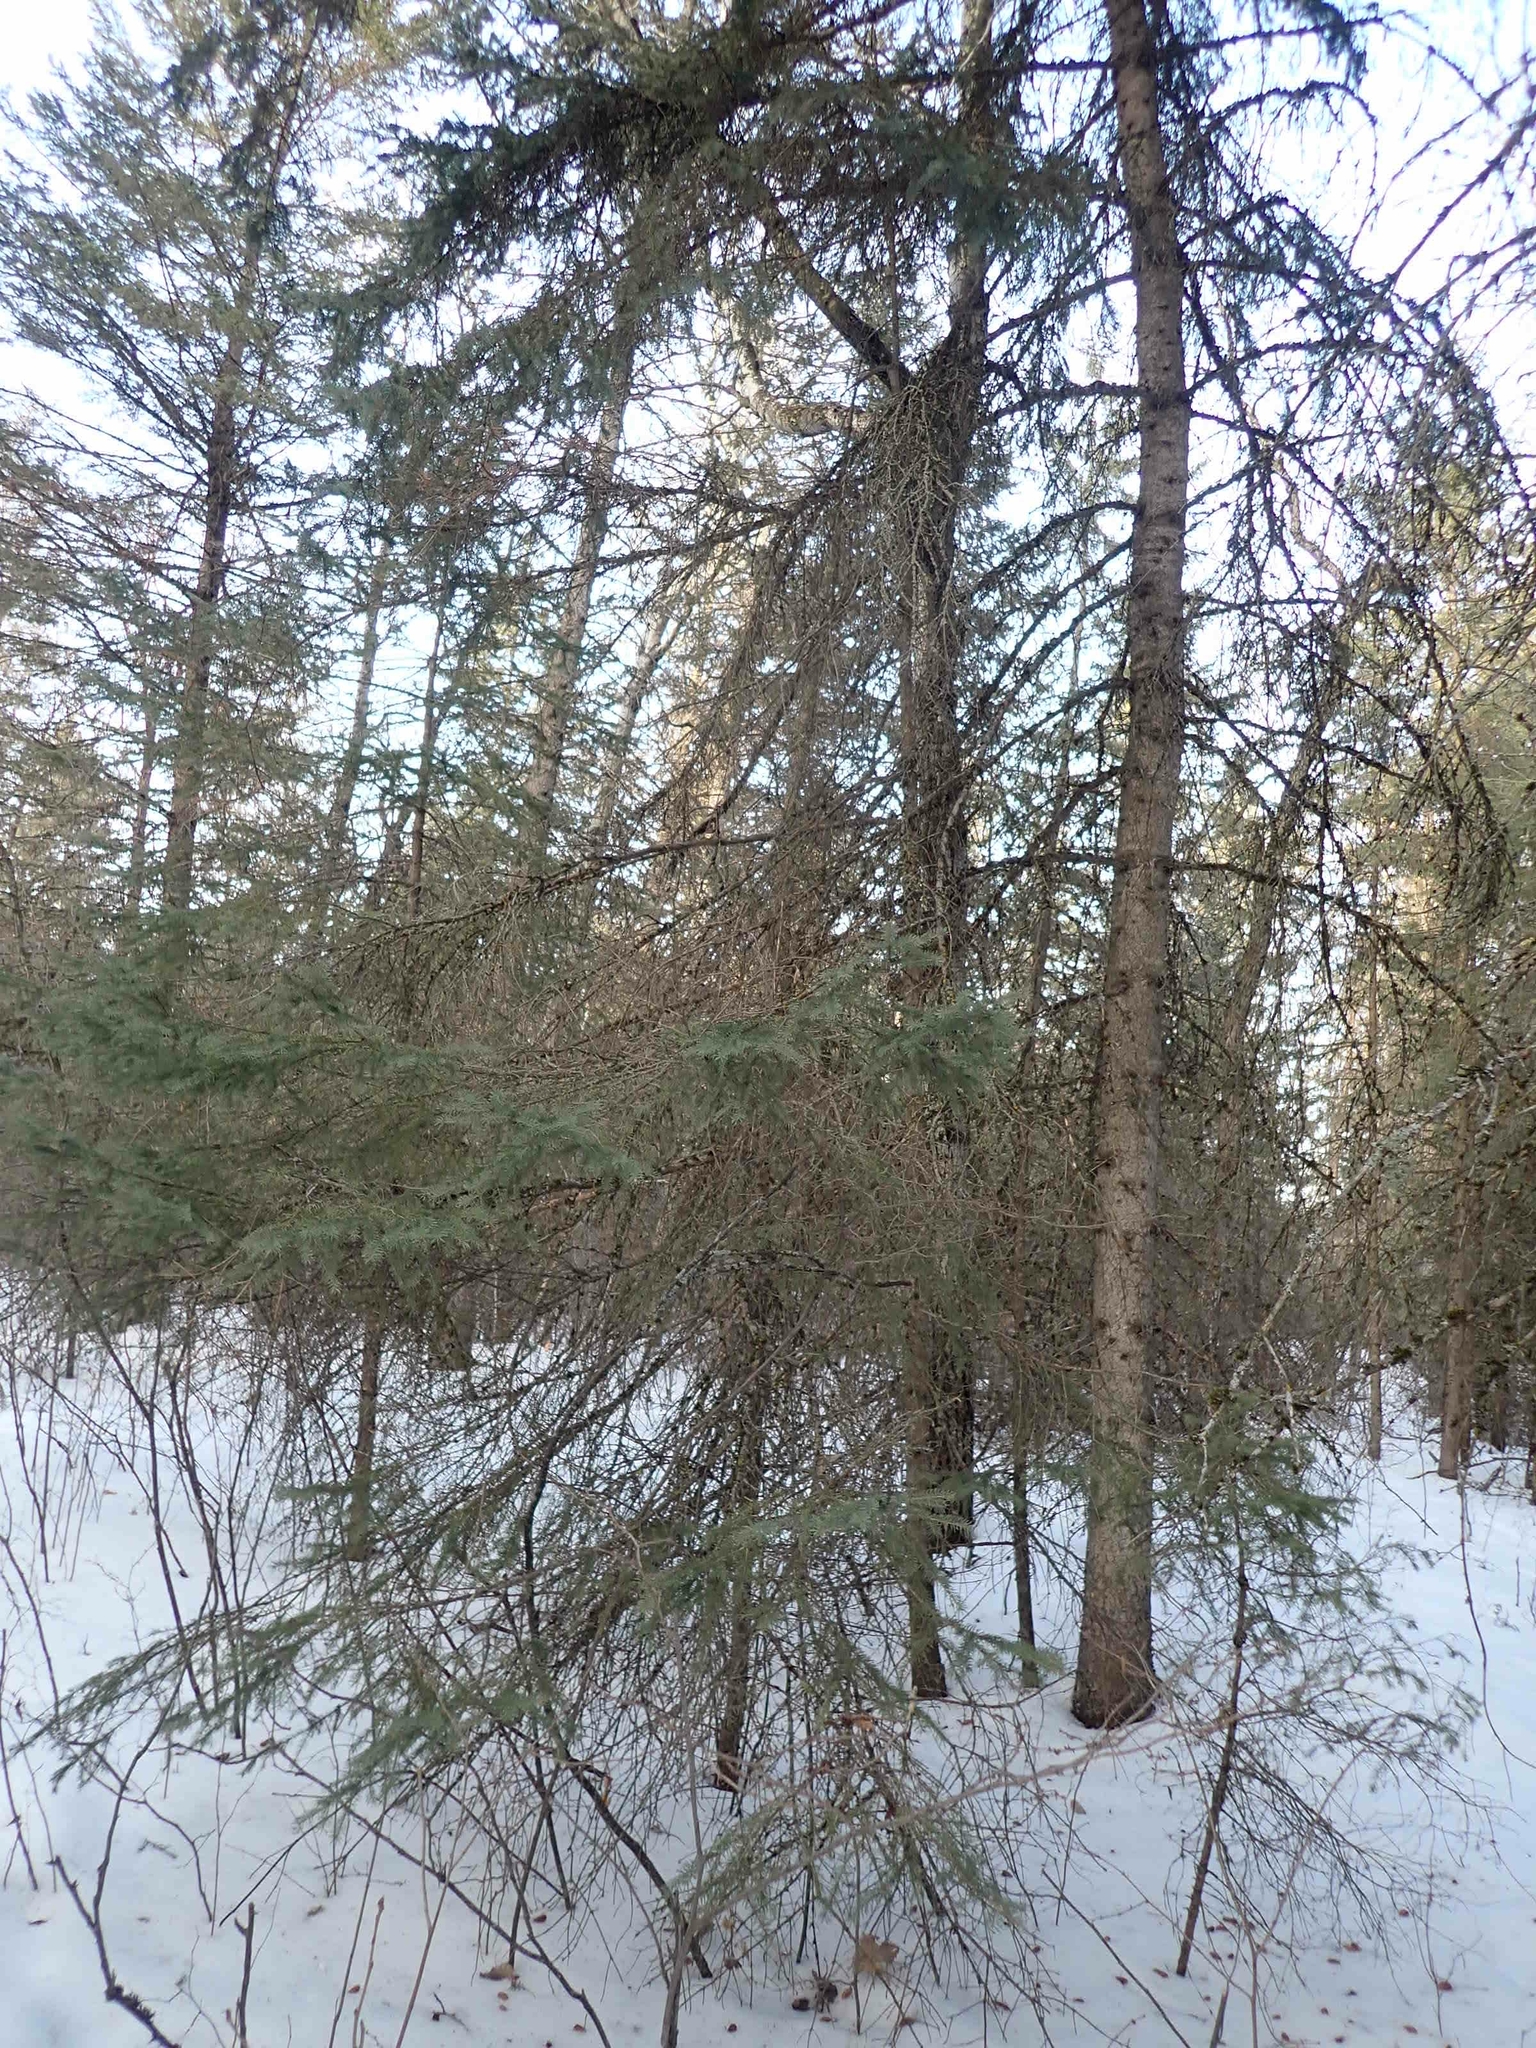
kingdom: Plantae
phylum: Tracheophyta
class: Pinopsida
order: Pinales
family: Pinaceae
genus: Picea
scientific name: Picea glauca
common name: White spruce
